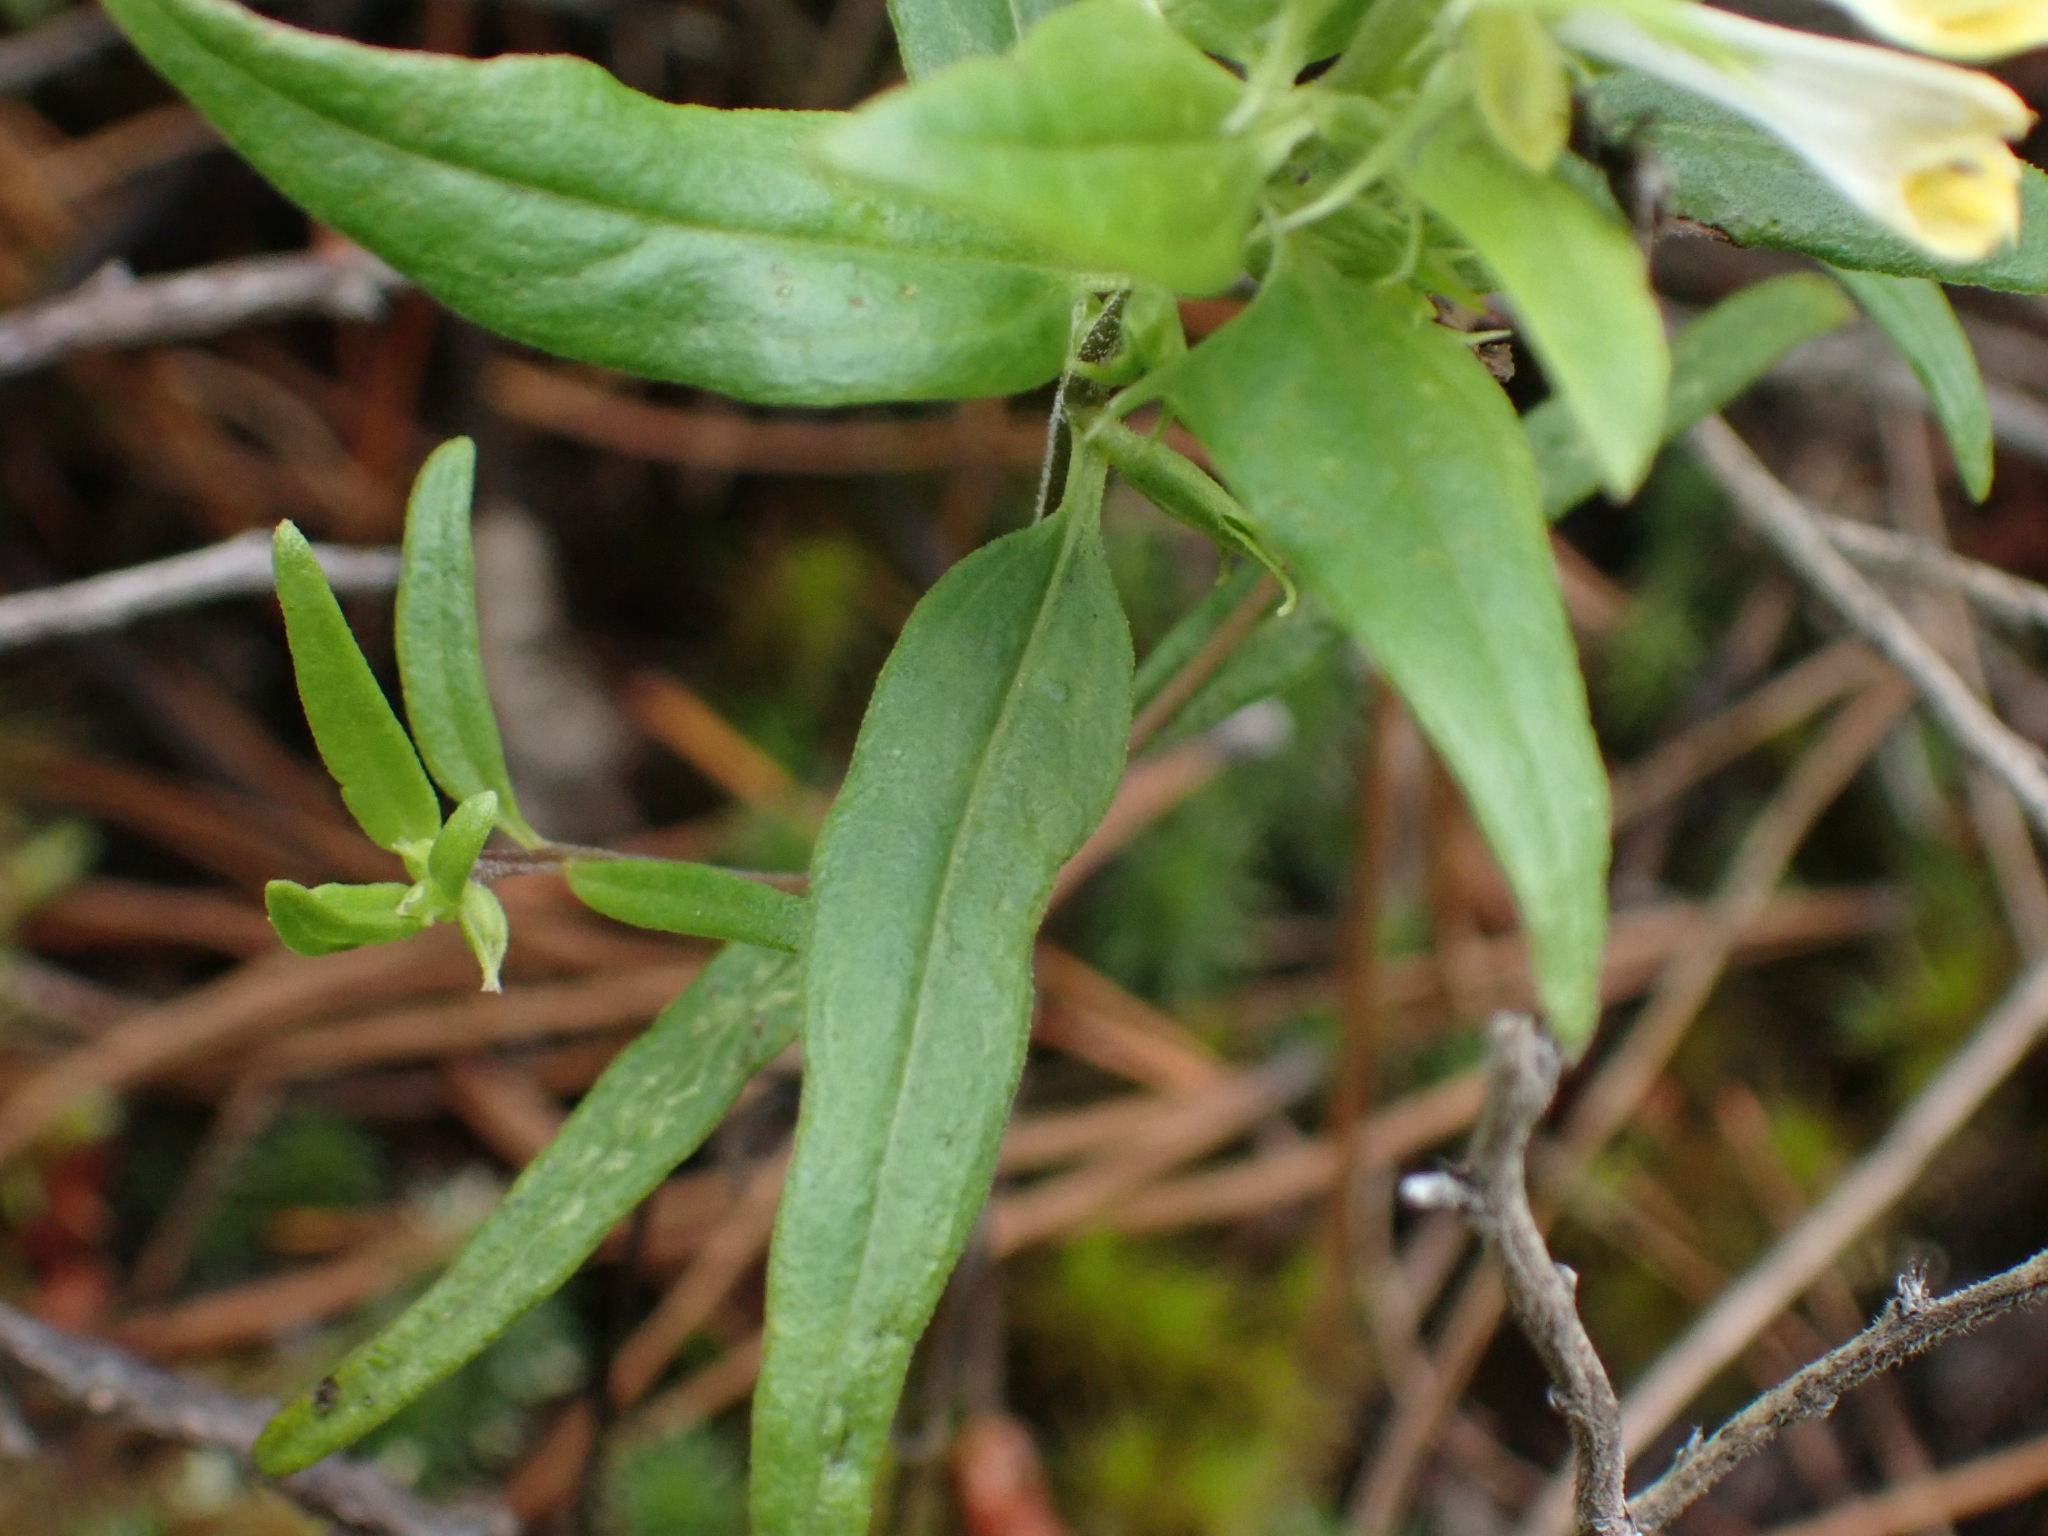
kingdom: Plantae
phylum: Tracheophyta
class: Magnoliopsida
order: Lamiales
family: Orobanchaceae
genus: Melampyrum
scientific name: Melampyrum lineare
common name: American cow-wheat
